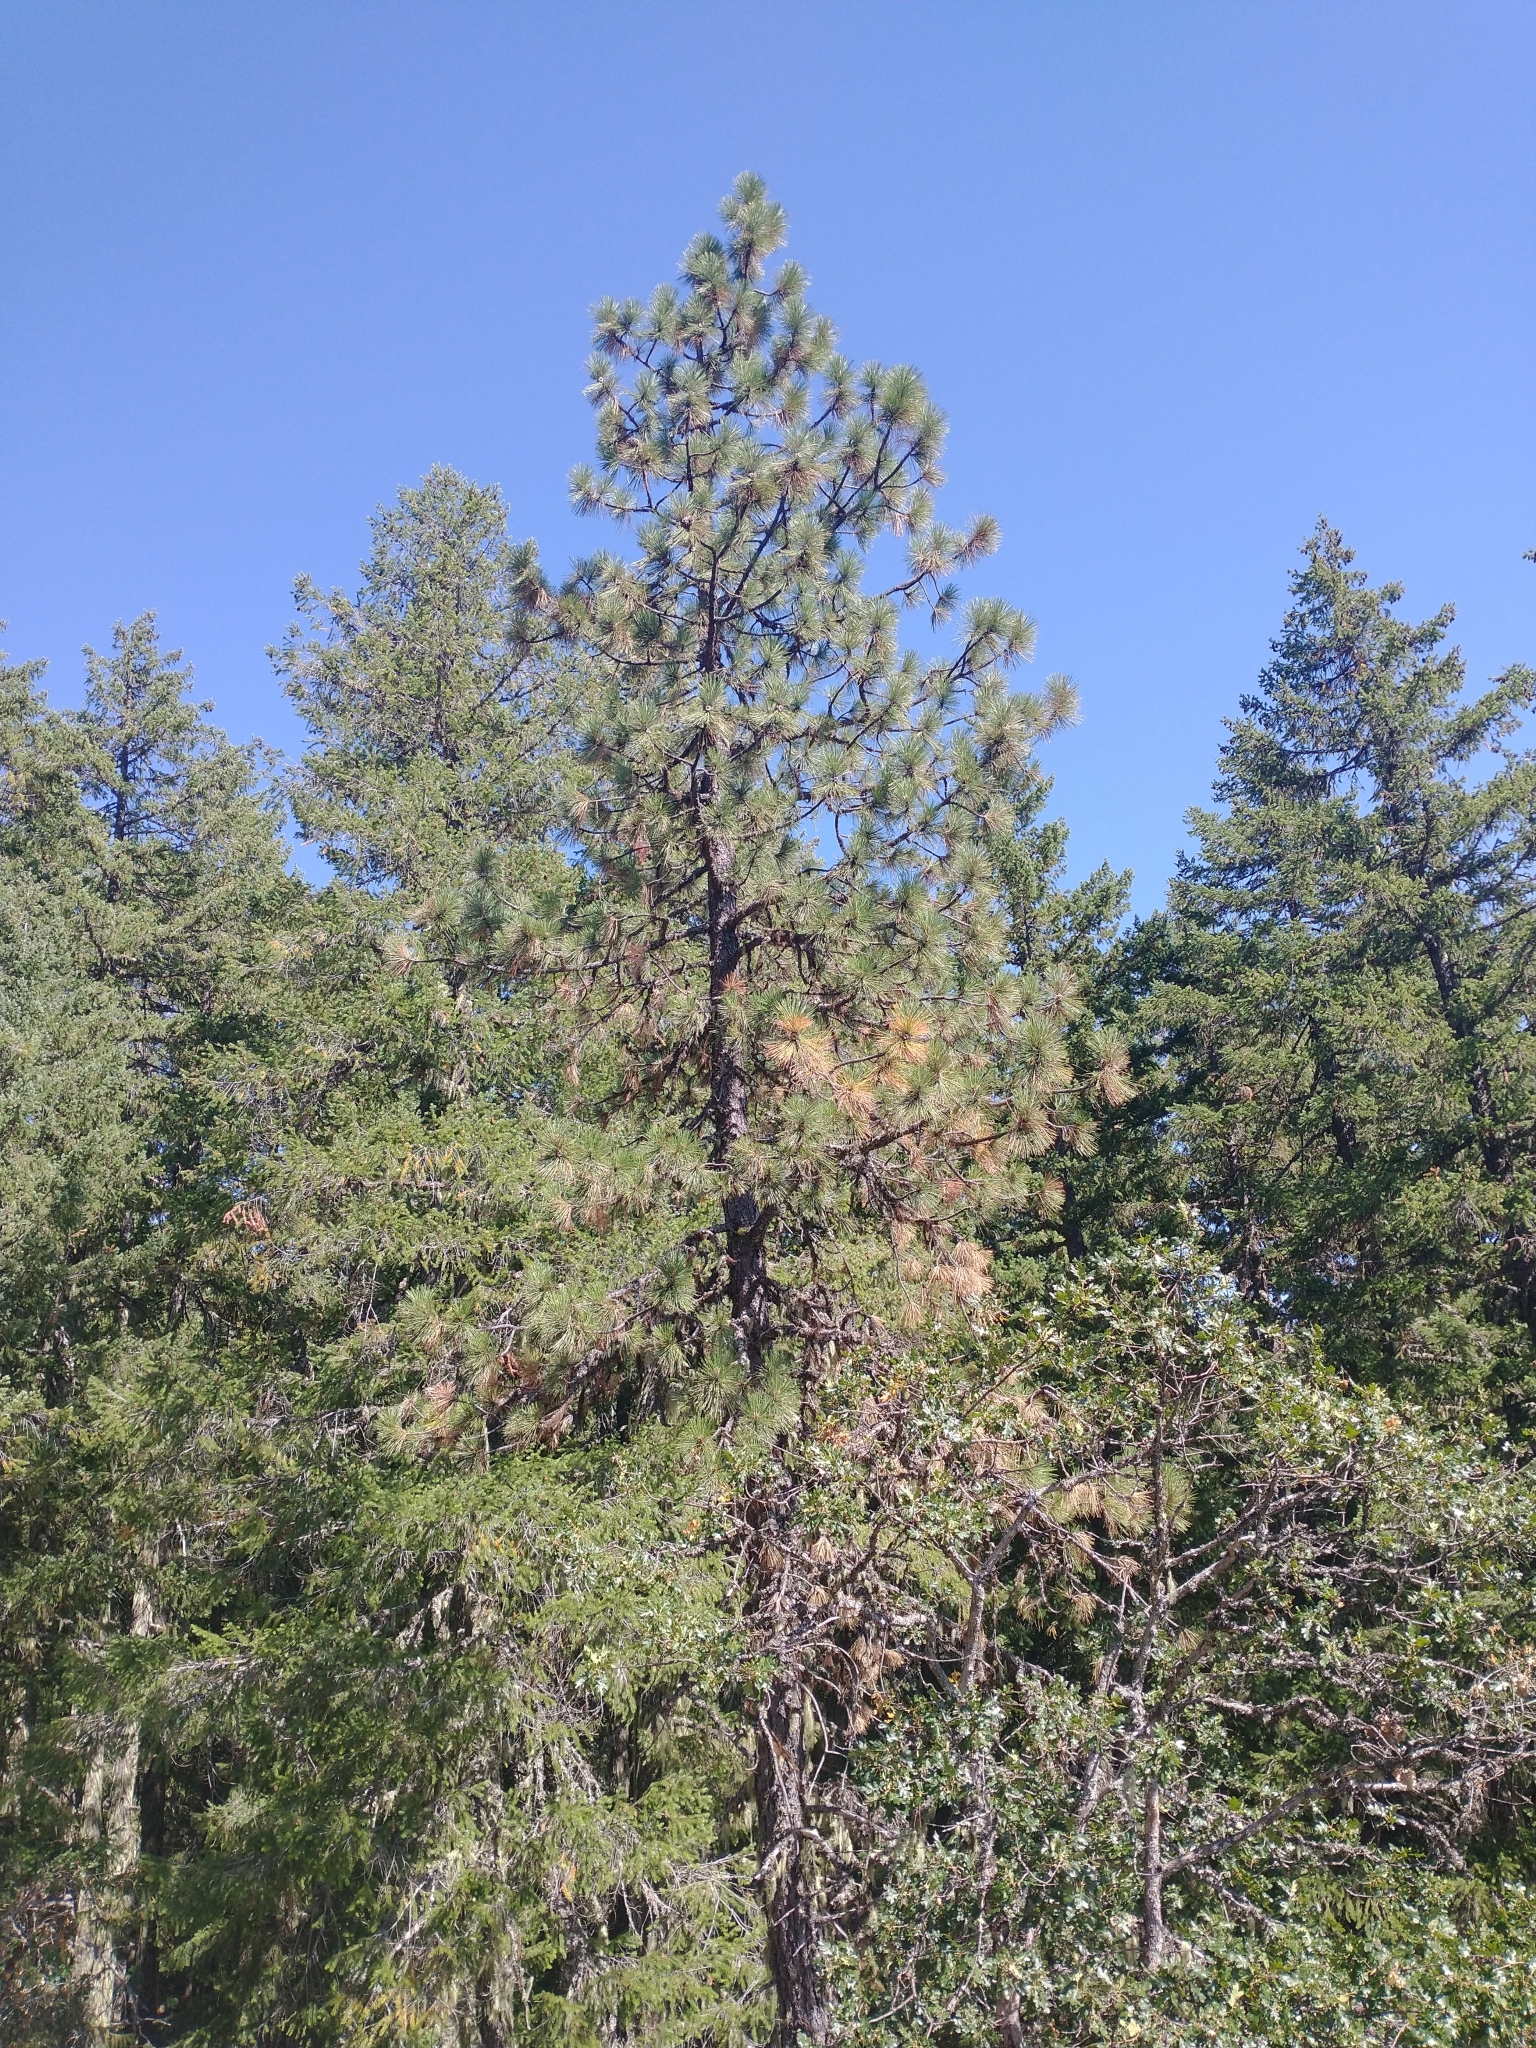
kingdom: Plantae
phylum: Tracheophyta
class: Pinopsida
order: Pinales
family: Pinaceae
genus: Pinus
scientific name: Pinus ponderosa
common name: Western yellow-pine
